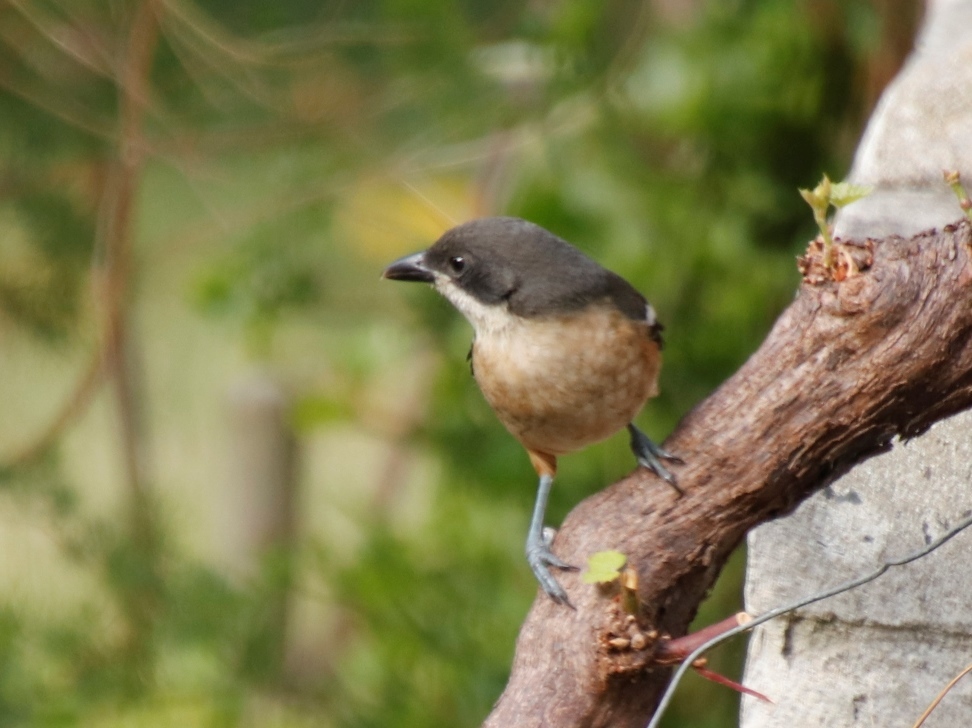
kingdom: Animalia
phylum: Chordata
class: Aves
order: Passeriformes
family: Malaconotidae
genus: Laniarius
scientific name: Laniarius ferrugineus
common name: Southern boubou
